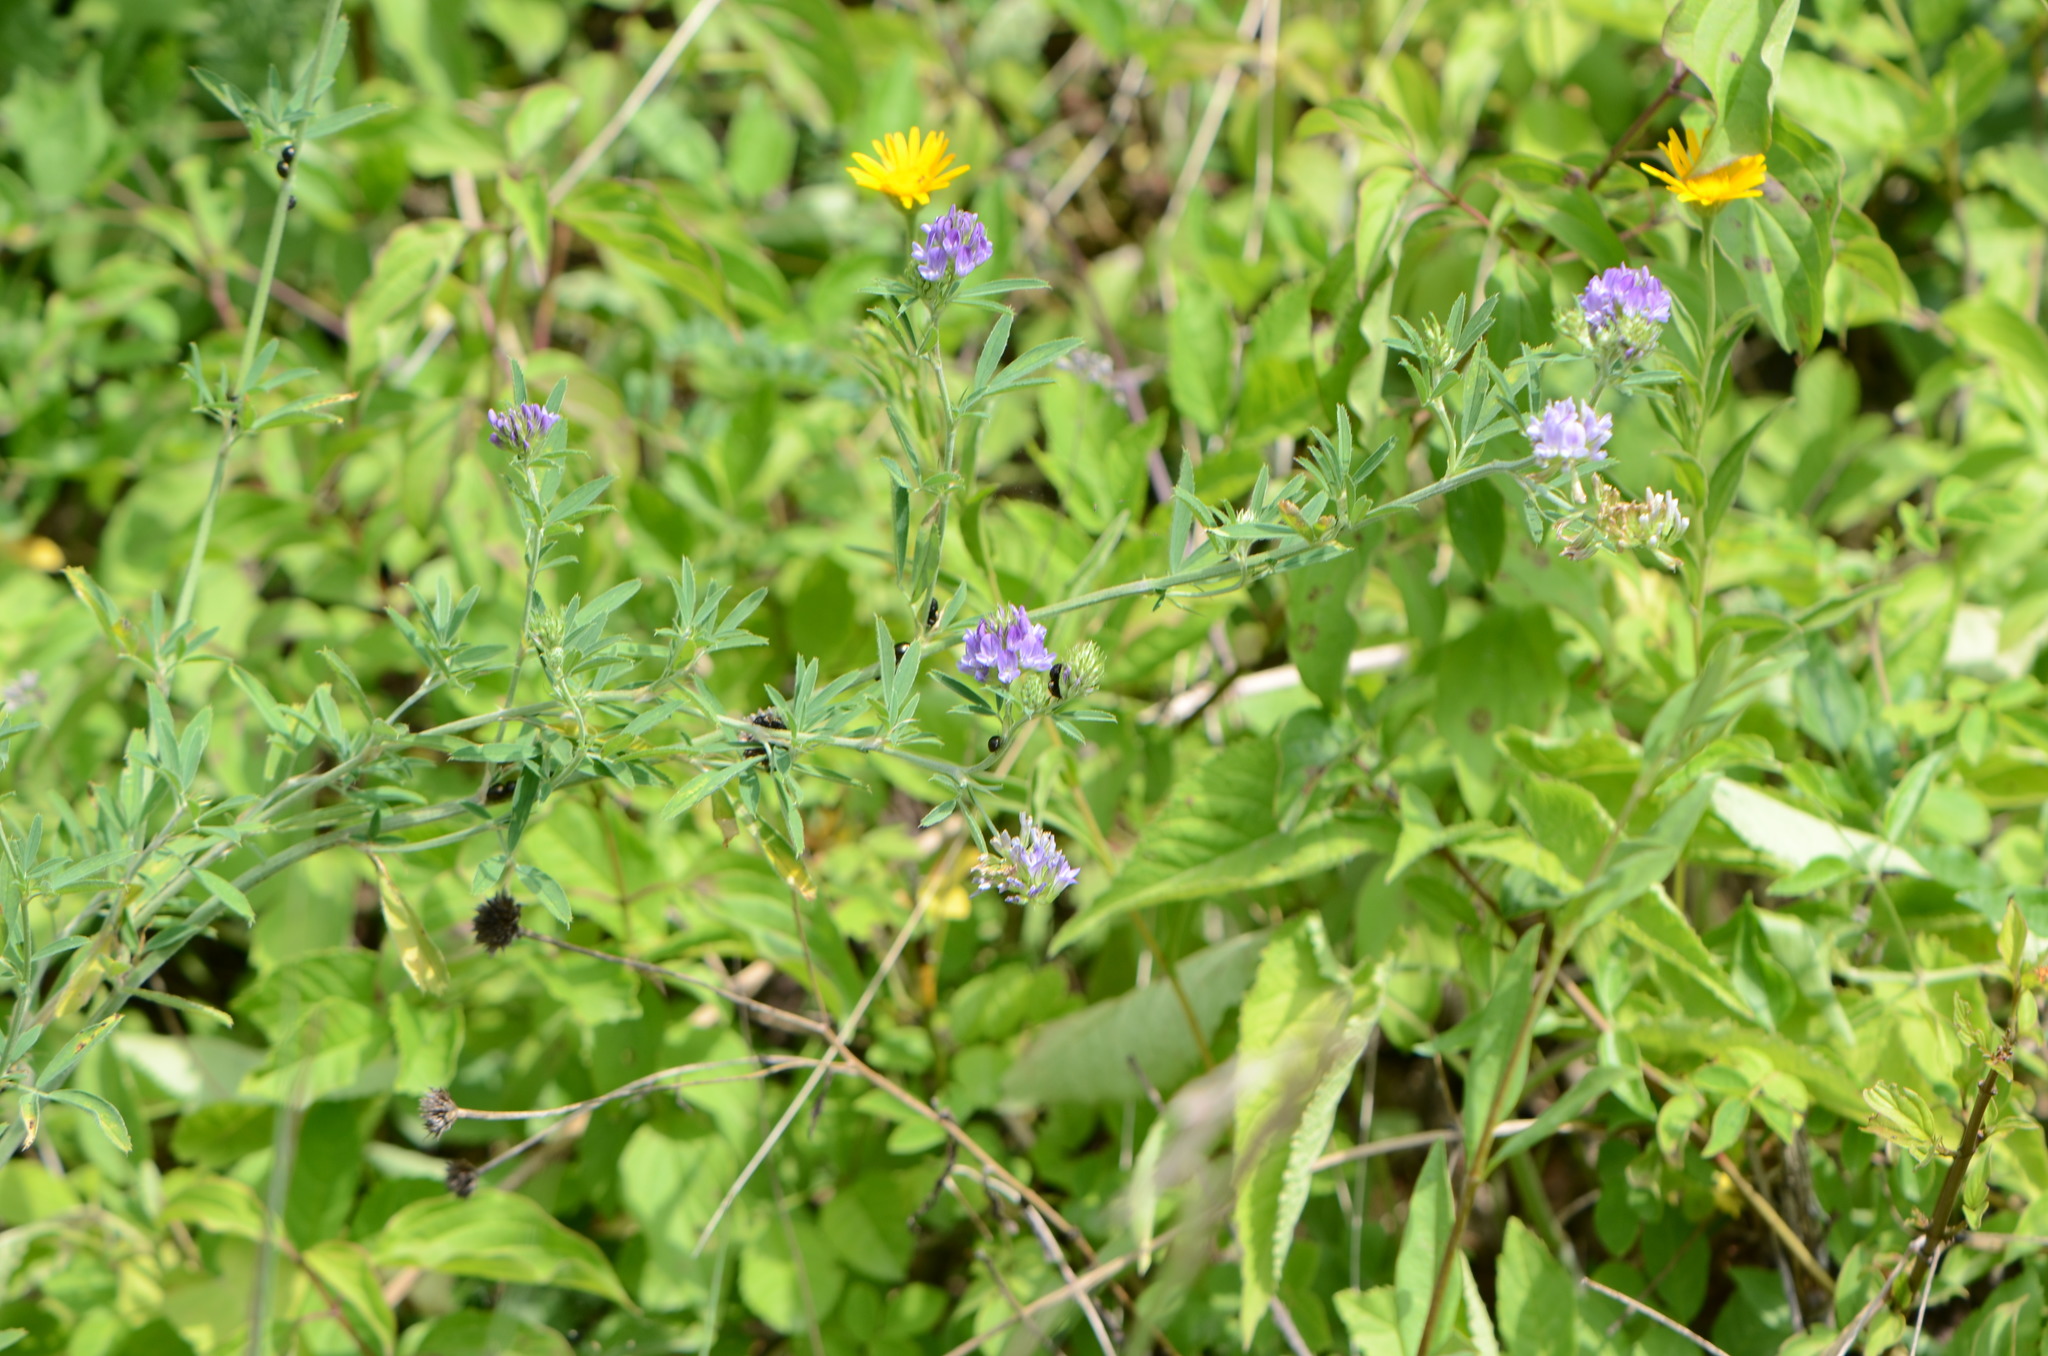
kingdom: Plantae
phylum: Tracheophyta
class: Magnoliopsida
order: Fabales
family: Fabaceae
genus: Medicago
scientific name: Medicago varia
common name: Sand lucerne
